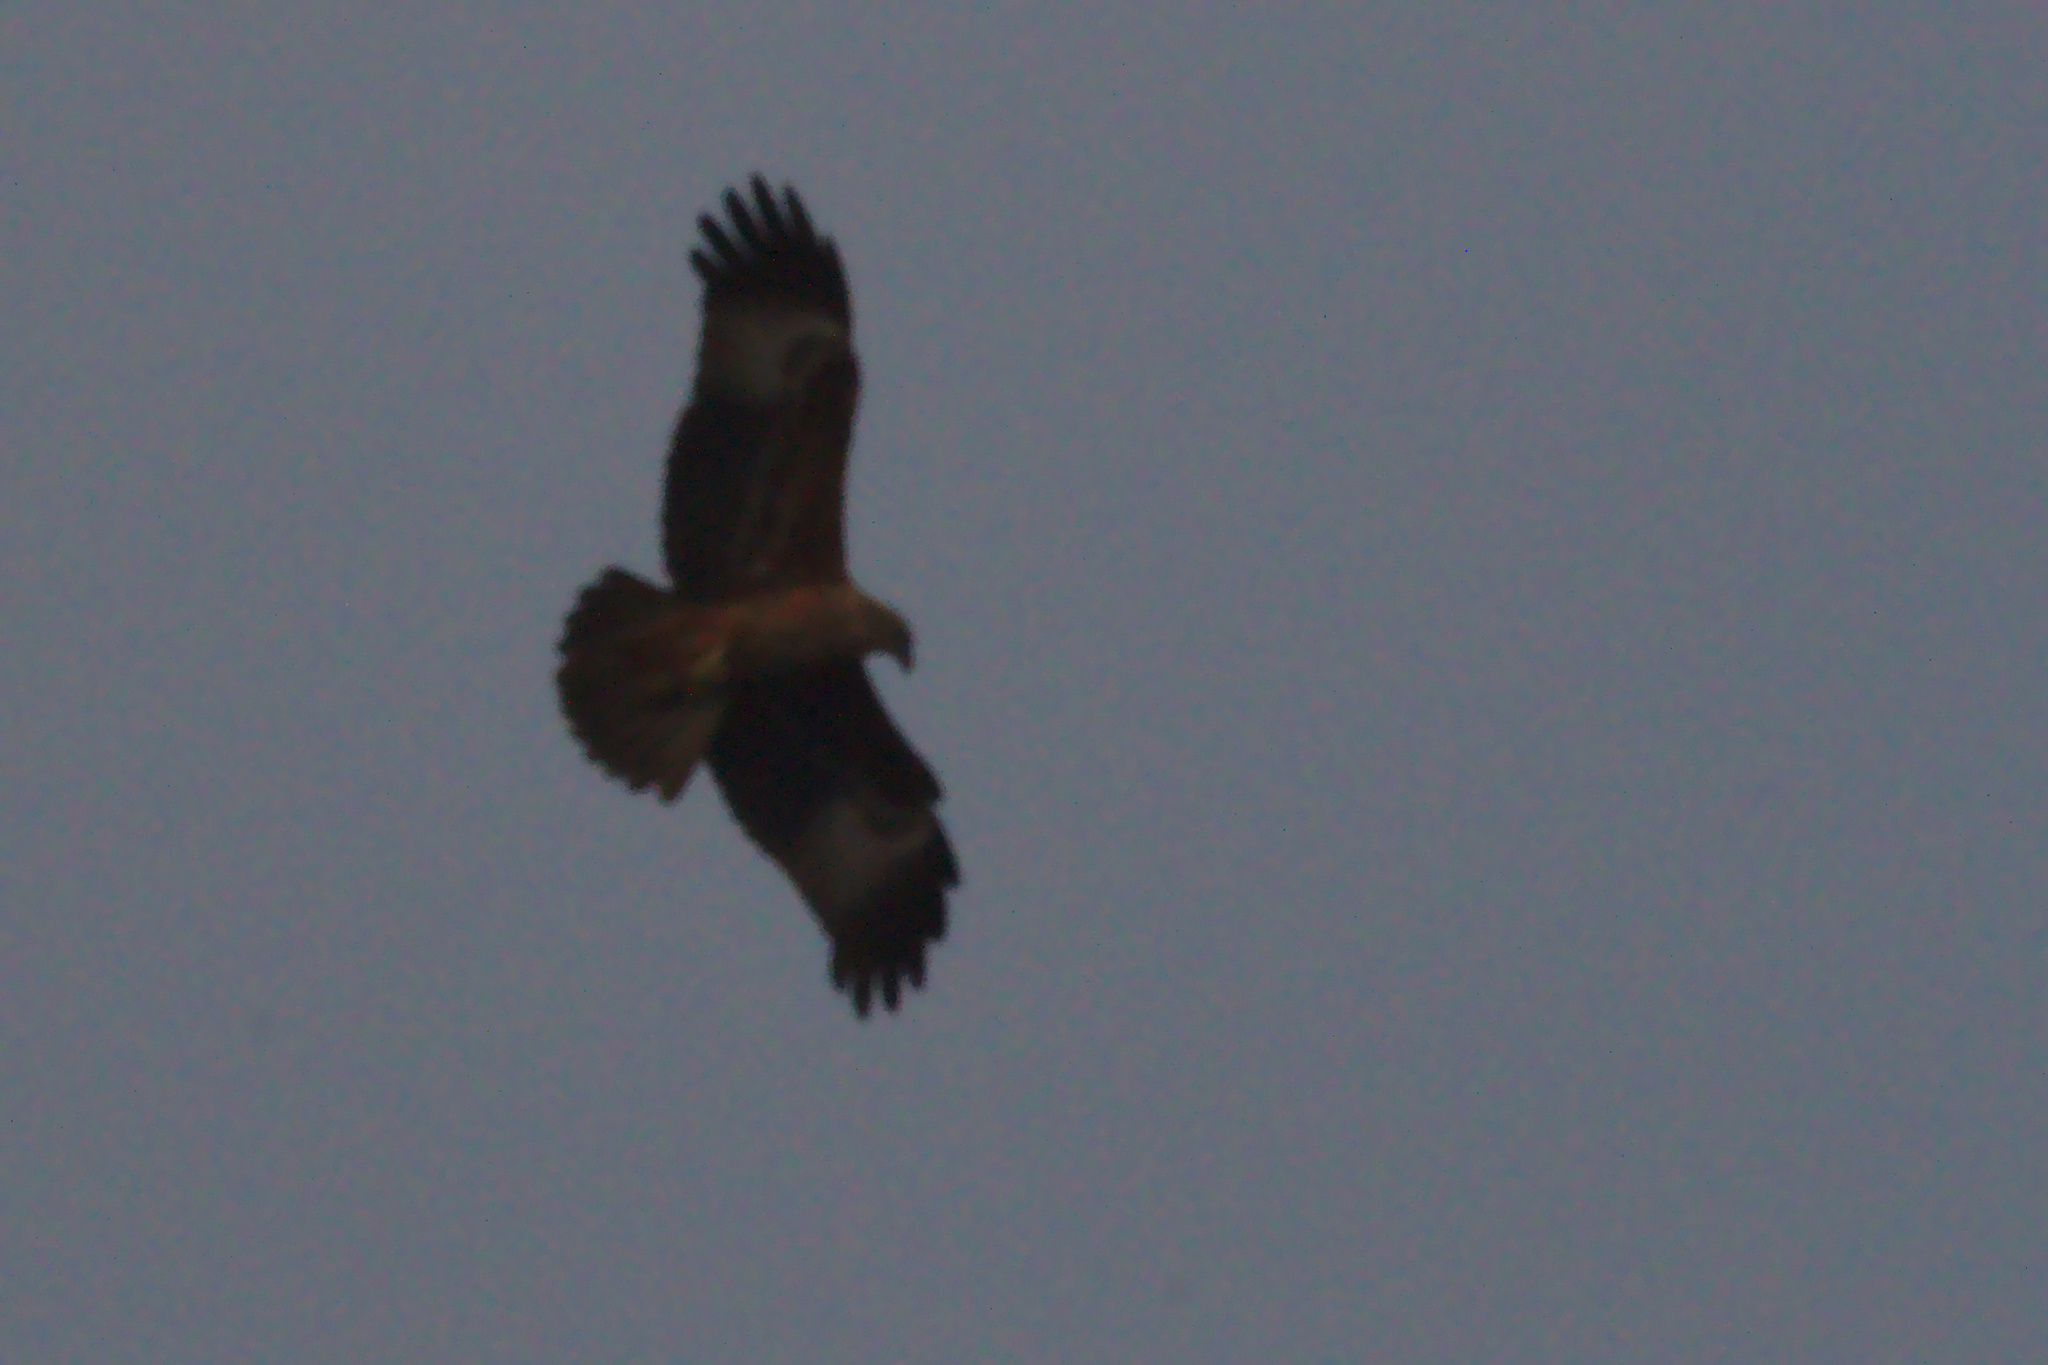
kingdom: Animalia
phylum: Chordata
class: Aves
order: Accipitriformes
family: Accipitridae
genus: Haliastur
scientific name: Haliastur indus
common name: Brahminy kite
